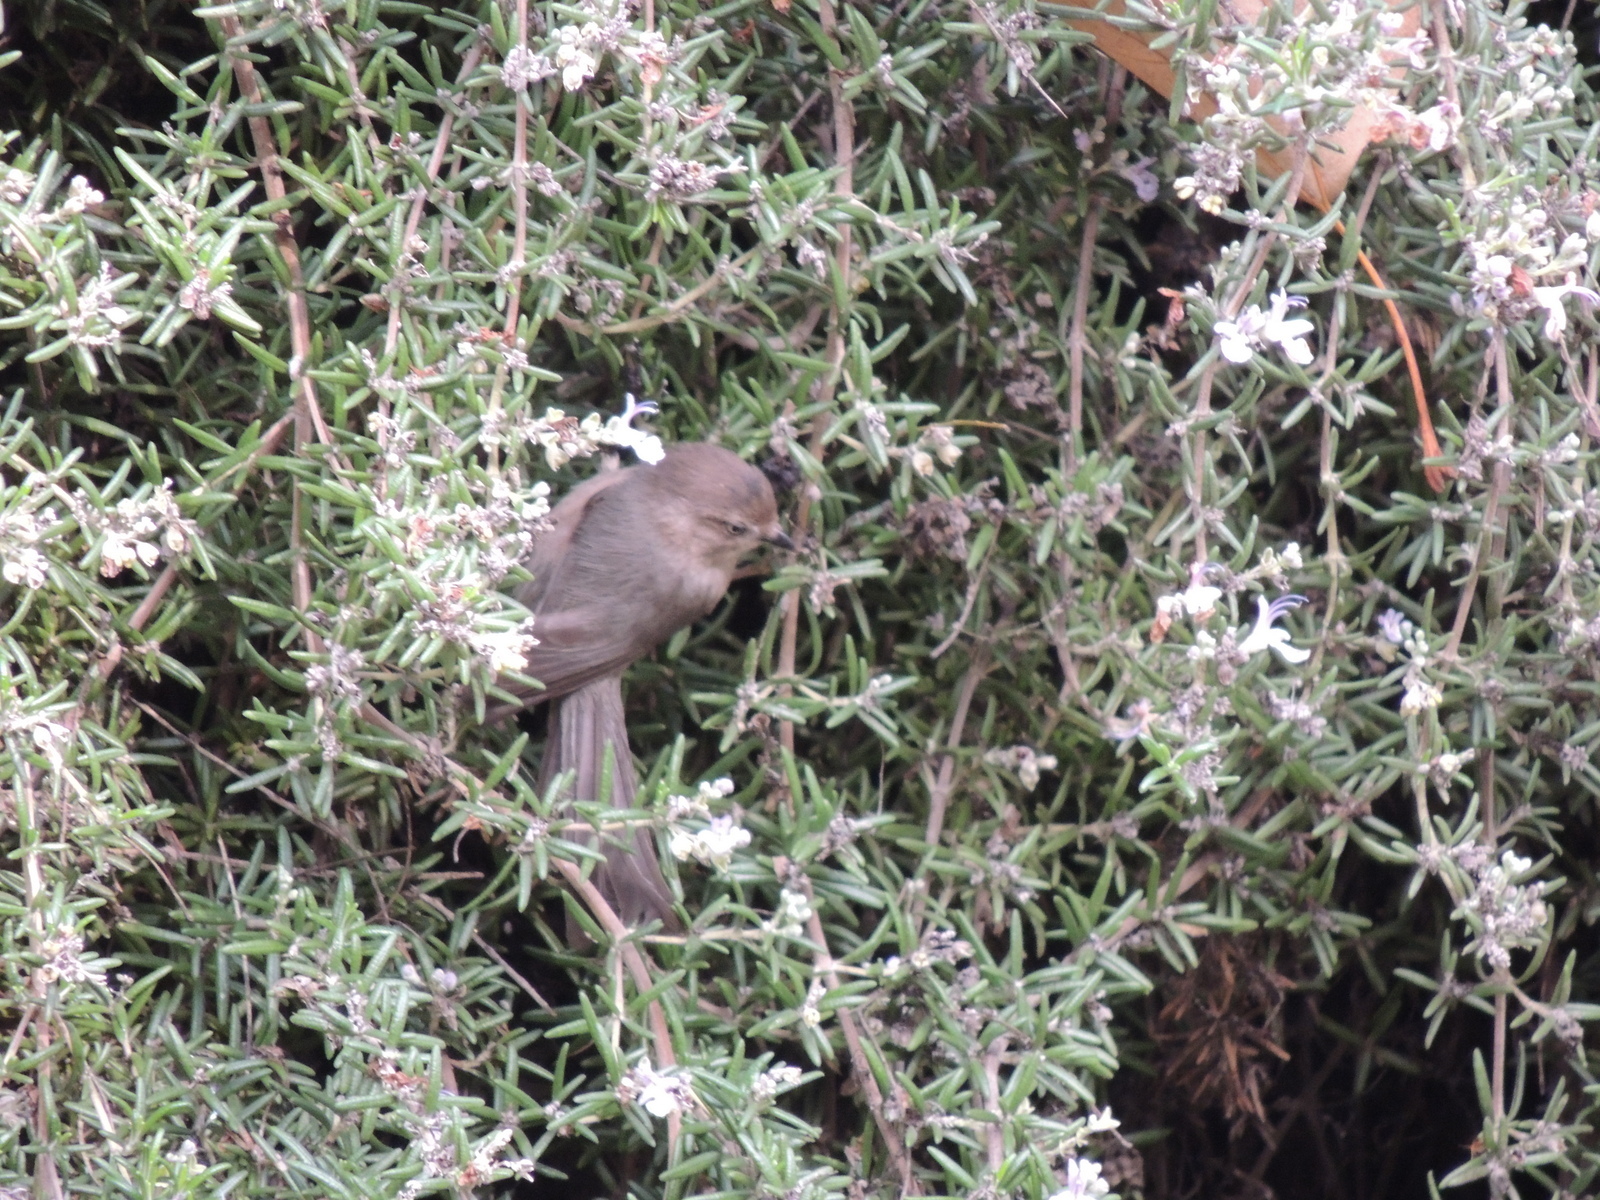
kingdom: Animalia
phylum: Chordata
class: Aves
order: Passeriformes
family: Aegithalidae
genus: Psaltriparus
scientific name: Psaltriparus minimus
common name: American bushtit
